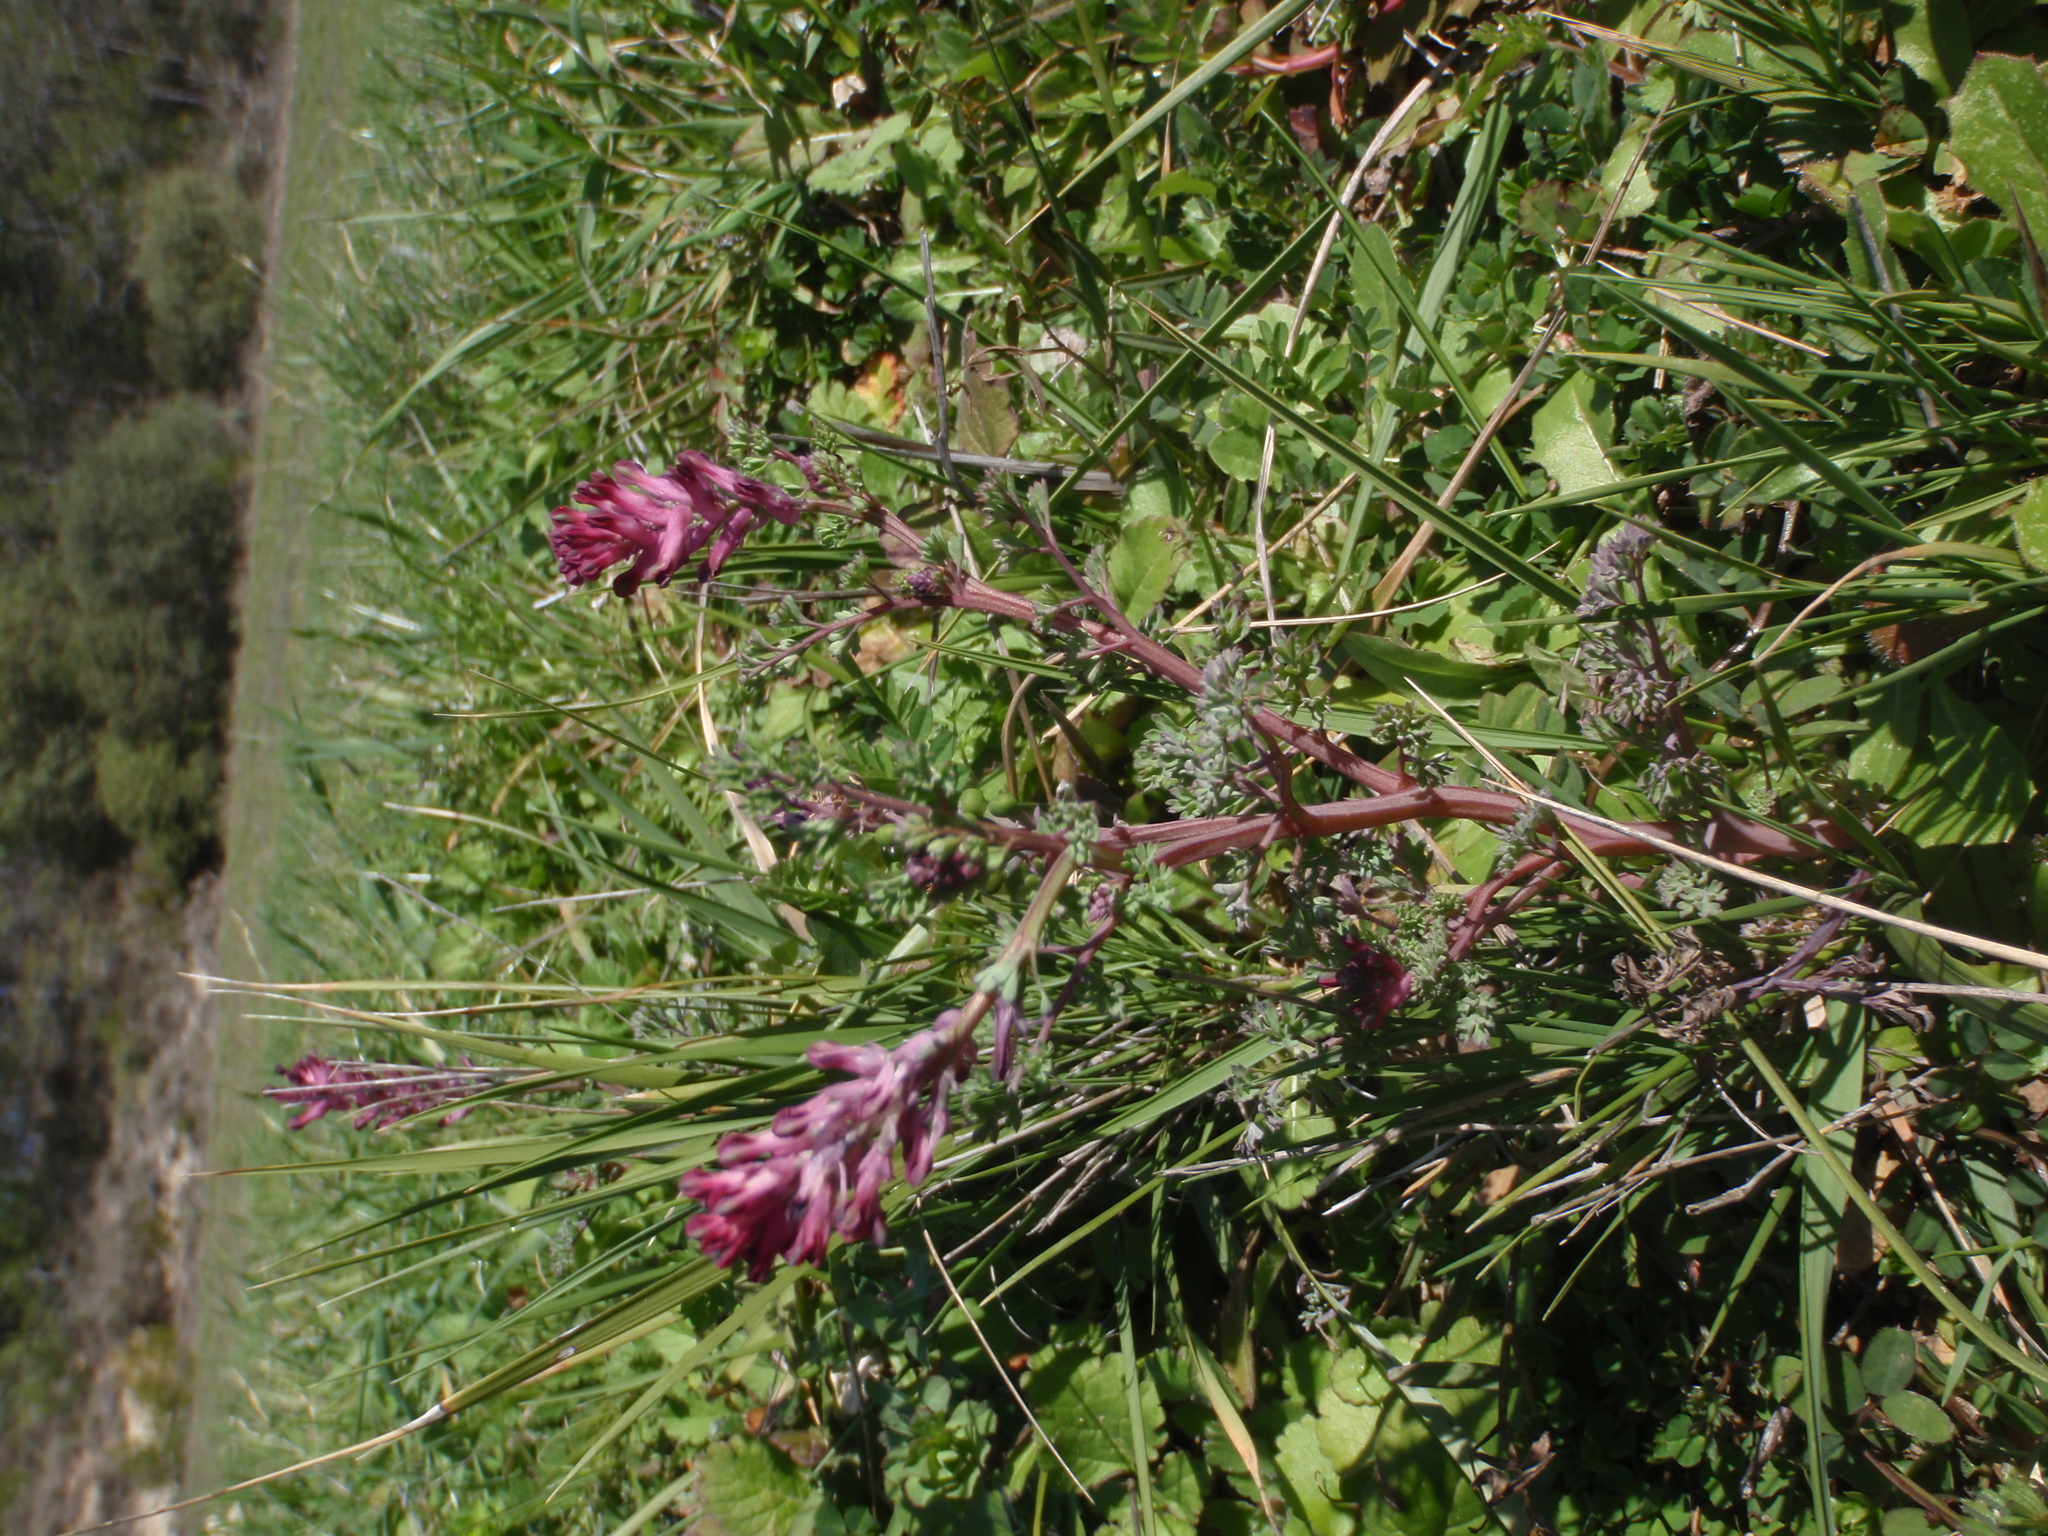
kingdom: Plantae
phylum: Tracheophyta
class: Magnoliopsida
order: Ranunculales
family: Papaveraceae
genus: Fumaria
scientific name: Fumaria officinalis
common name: Common fumitory
